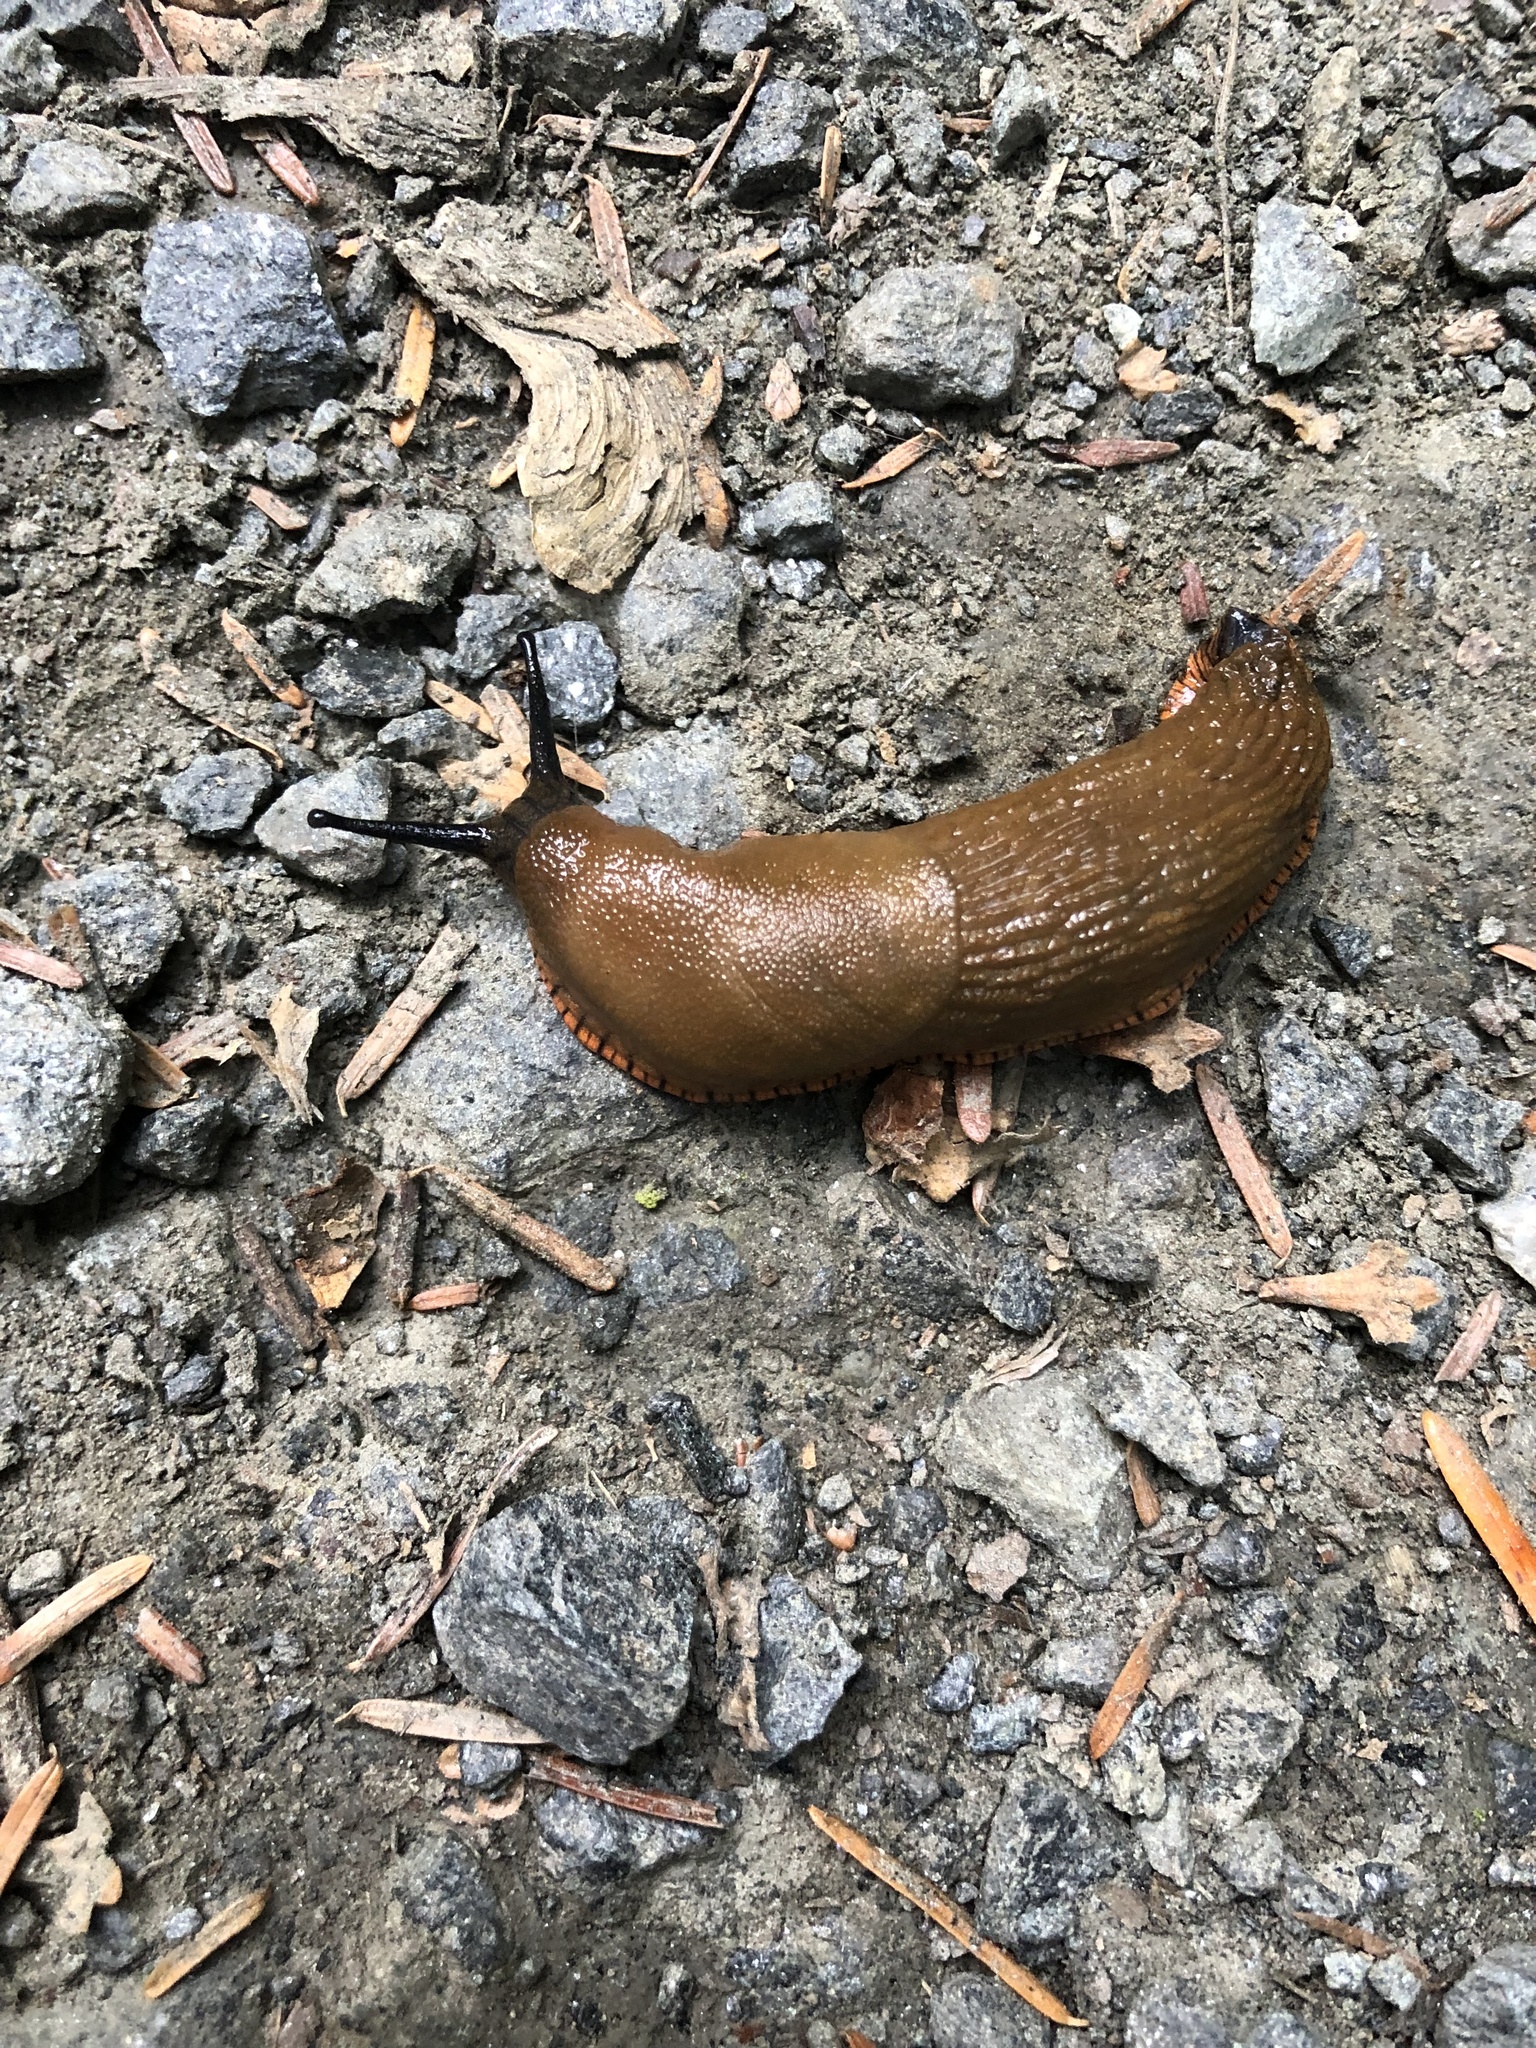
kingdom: Animalia
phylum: Mollusca
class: Gastropoda
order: Stylommatophora
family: Arionidae
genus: Arion
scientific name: Arion rufus
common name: Chocolate arion
